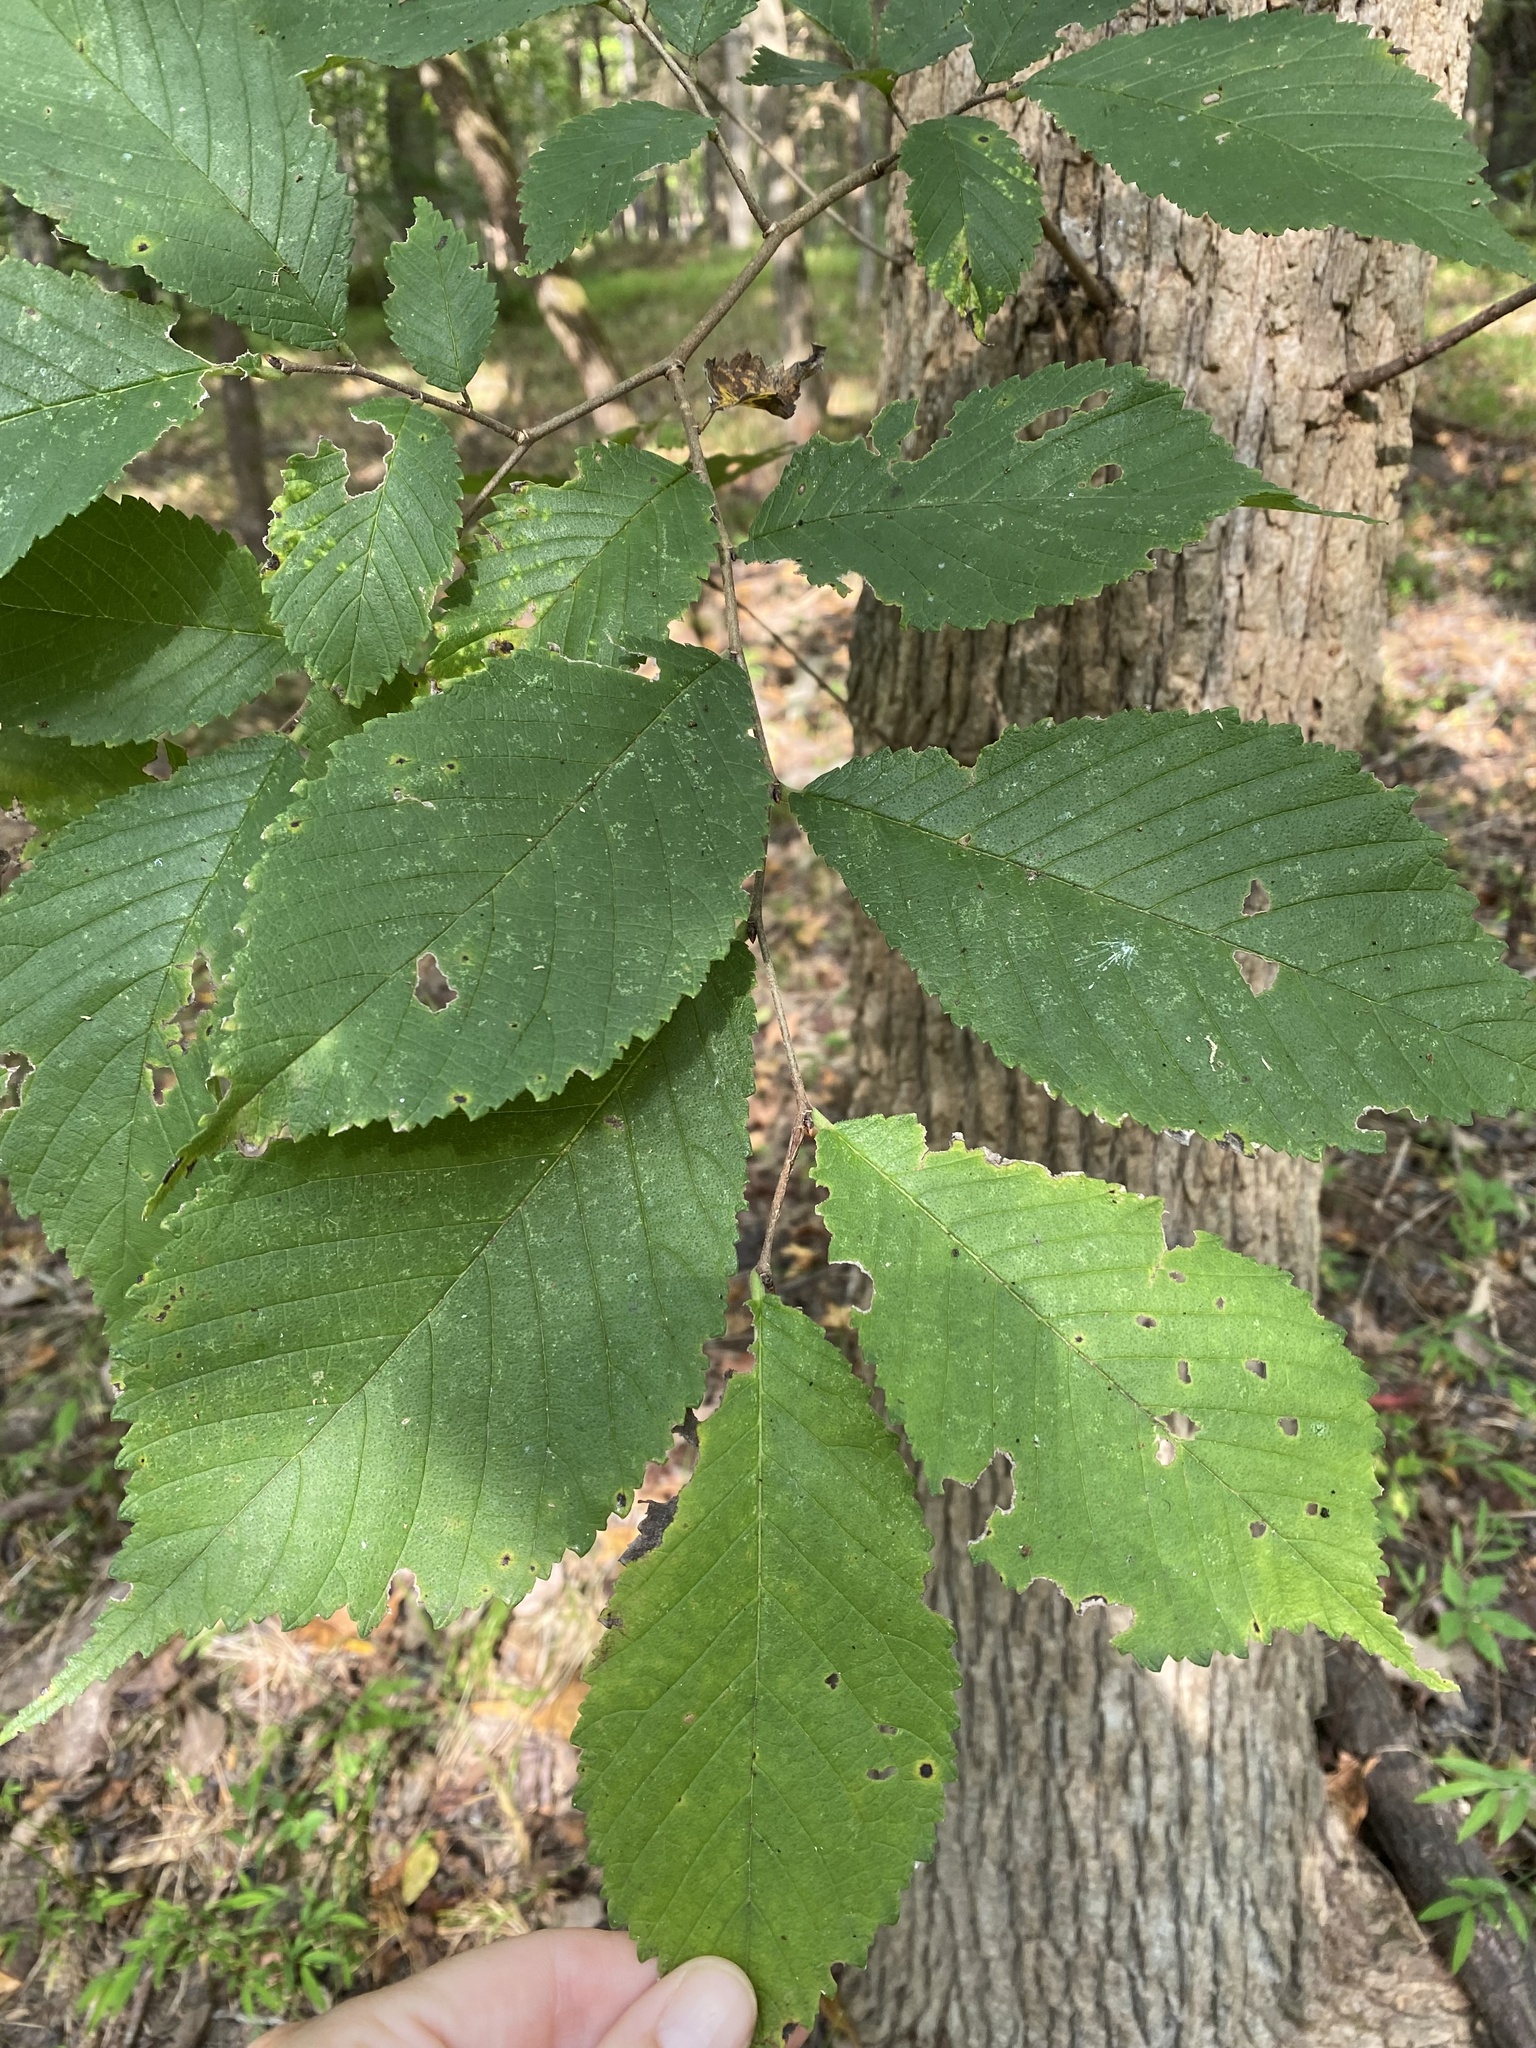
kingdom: Plantae
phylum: Tracheophyta
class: Magnoliopsida
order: Rosales
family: Ulmaceae
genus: Ulmus
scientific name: Ulmus rubra
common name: Slippery elm
